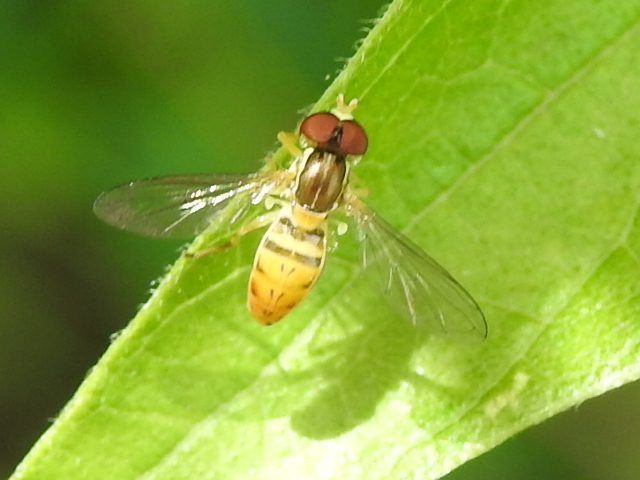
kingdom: Animalia
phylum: Arthropoda
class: Insecta
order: Diptera
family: Syrphidae
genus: Toxomerus
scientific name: Toxomerus marginatus
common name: Syrphid fly
